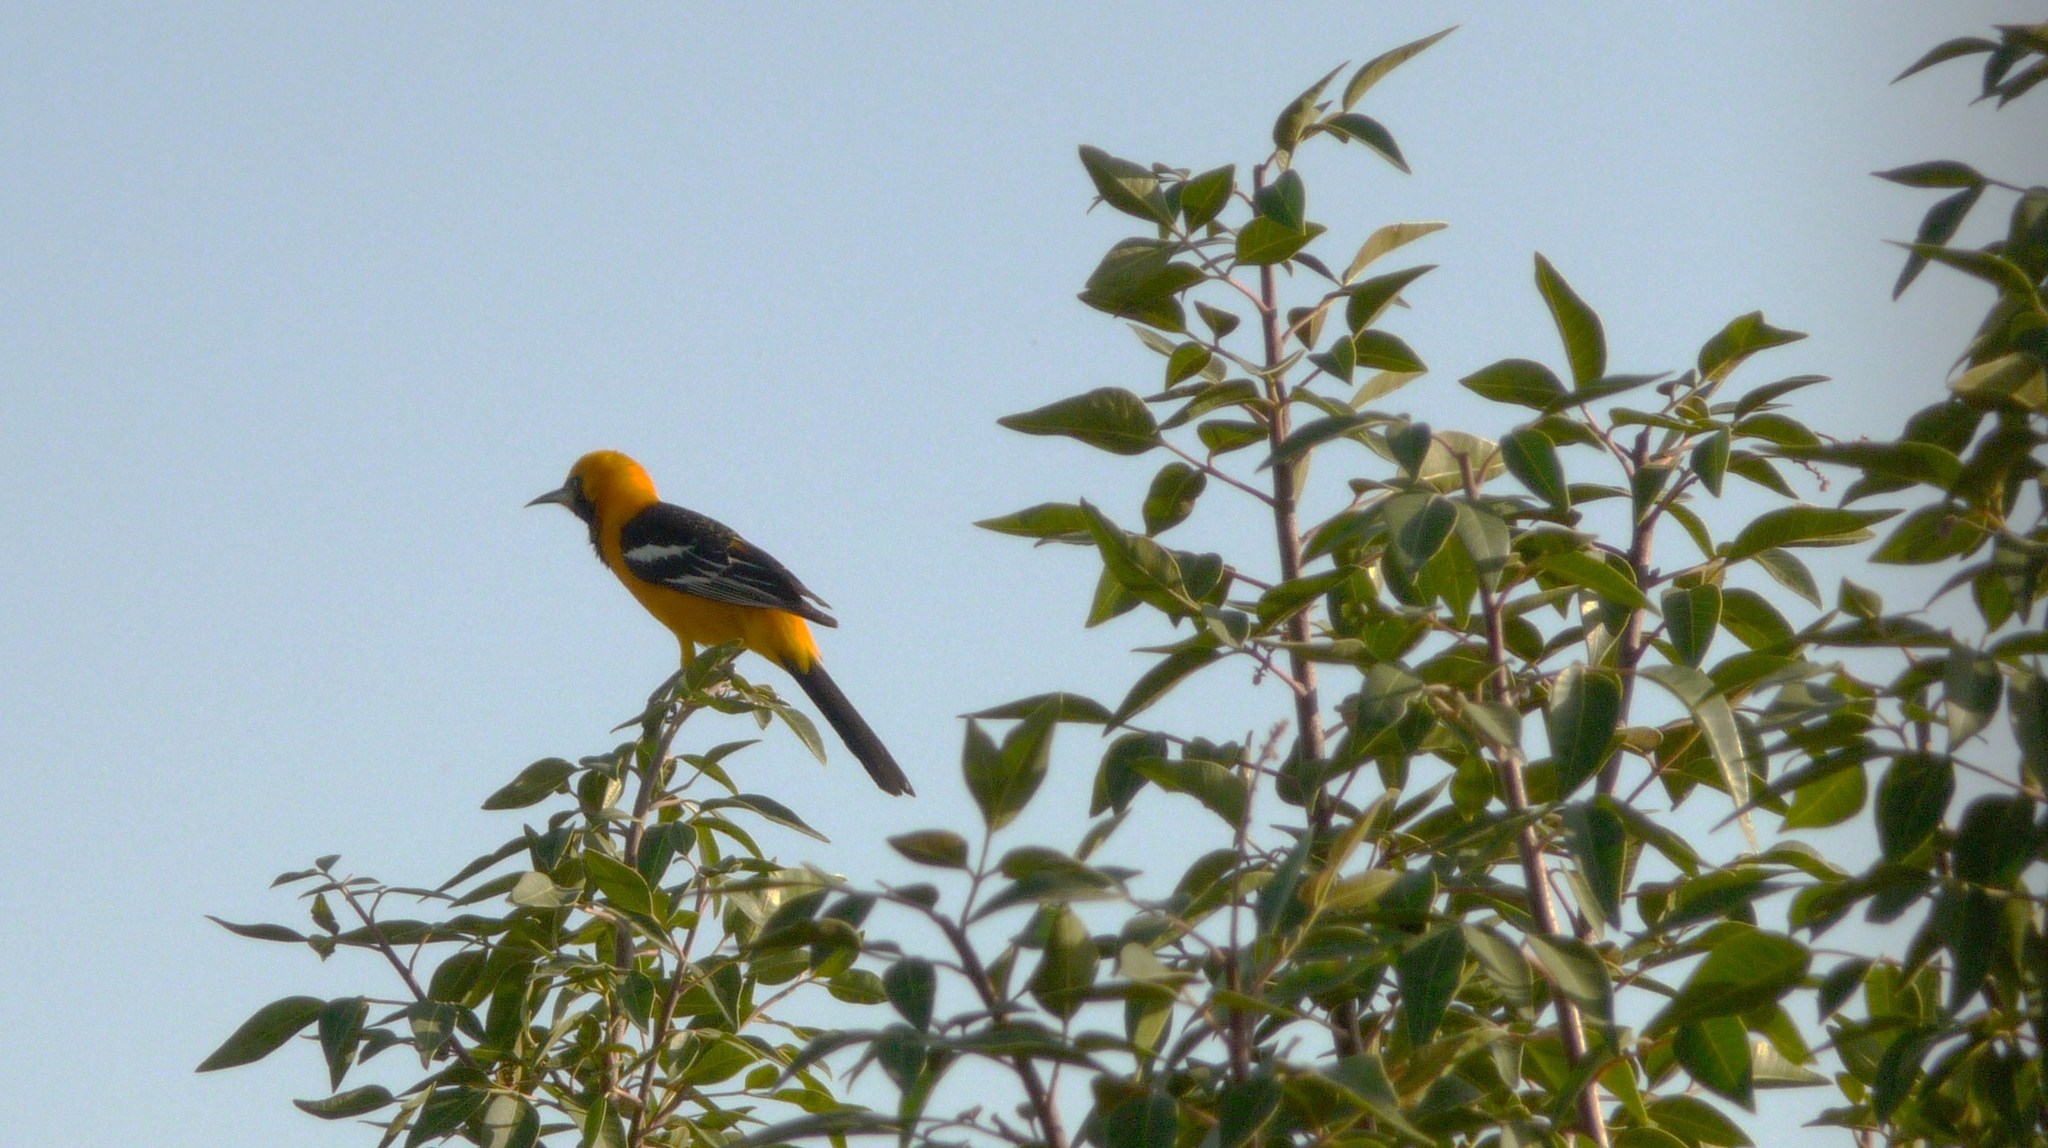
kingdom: Animalia
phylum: Chordata
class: Aves
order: Passeriformes
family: Icteridae
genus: Icterus
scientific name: Icterus cucullatus
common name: Hooded oriole
